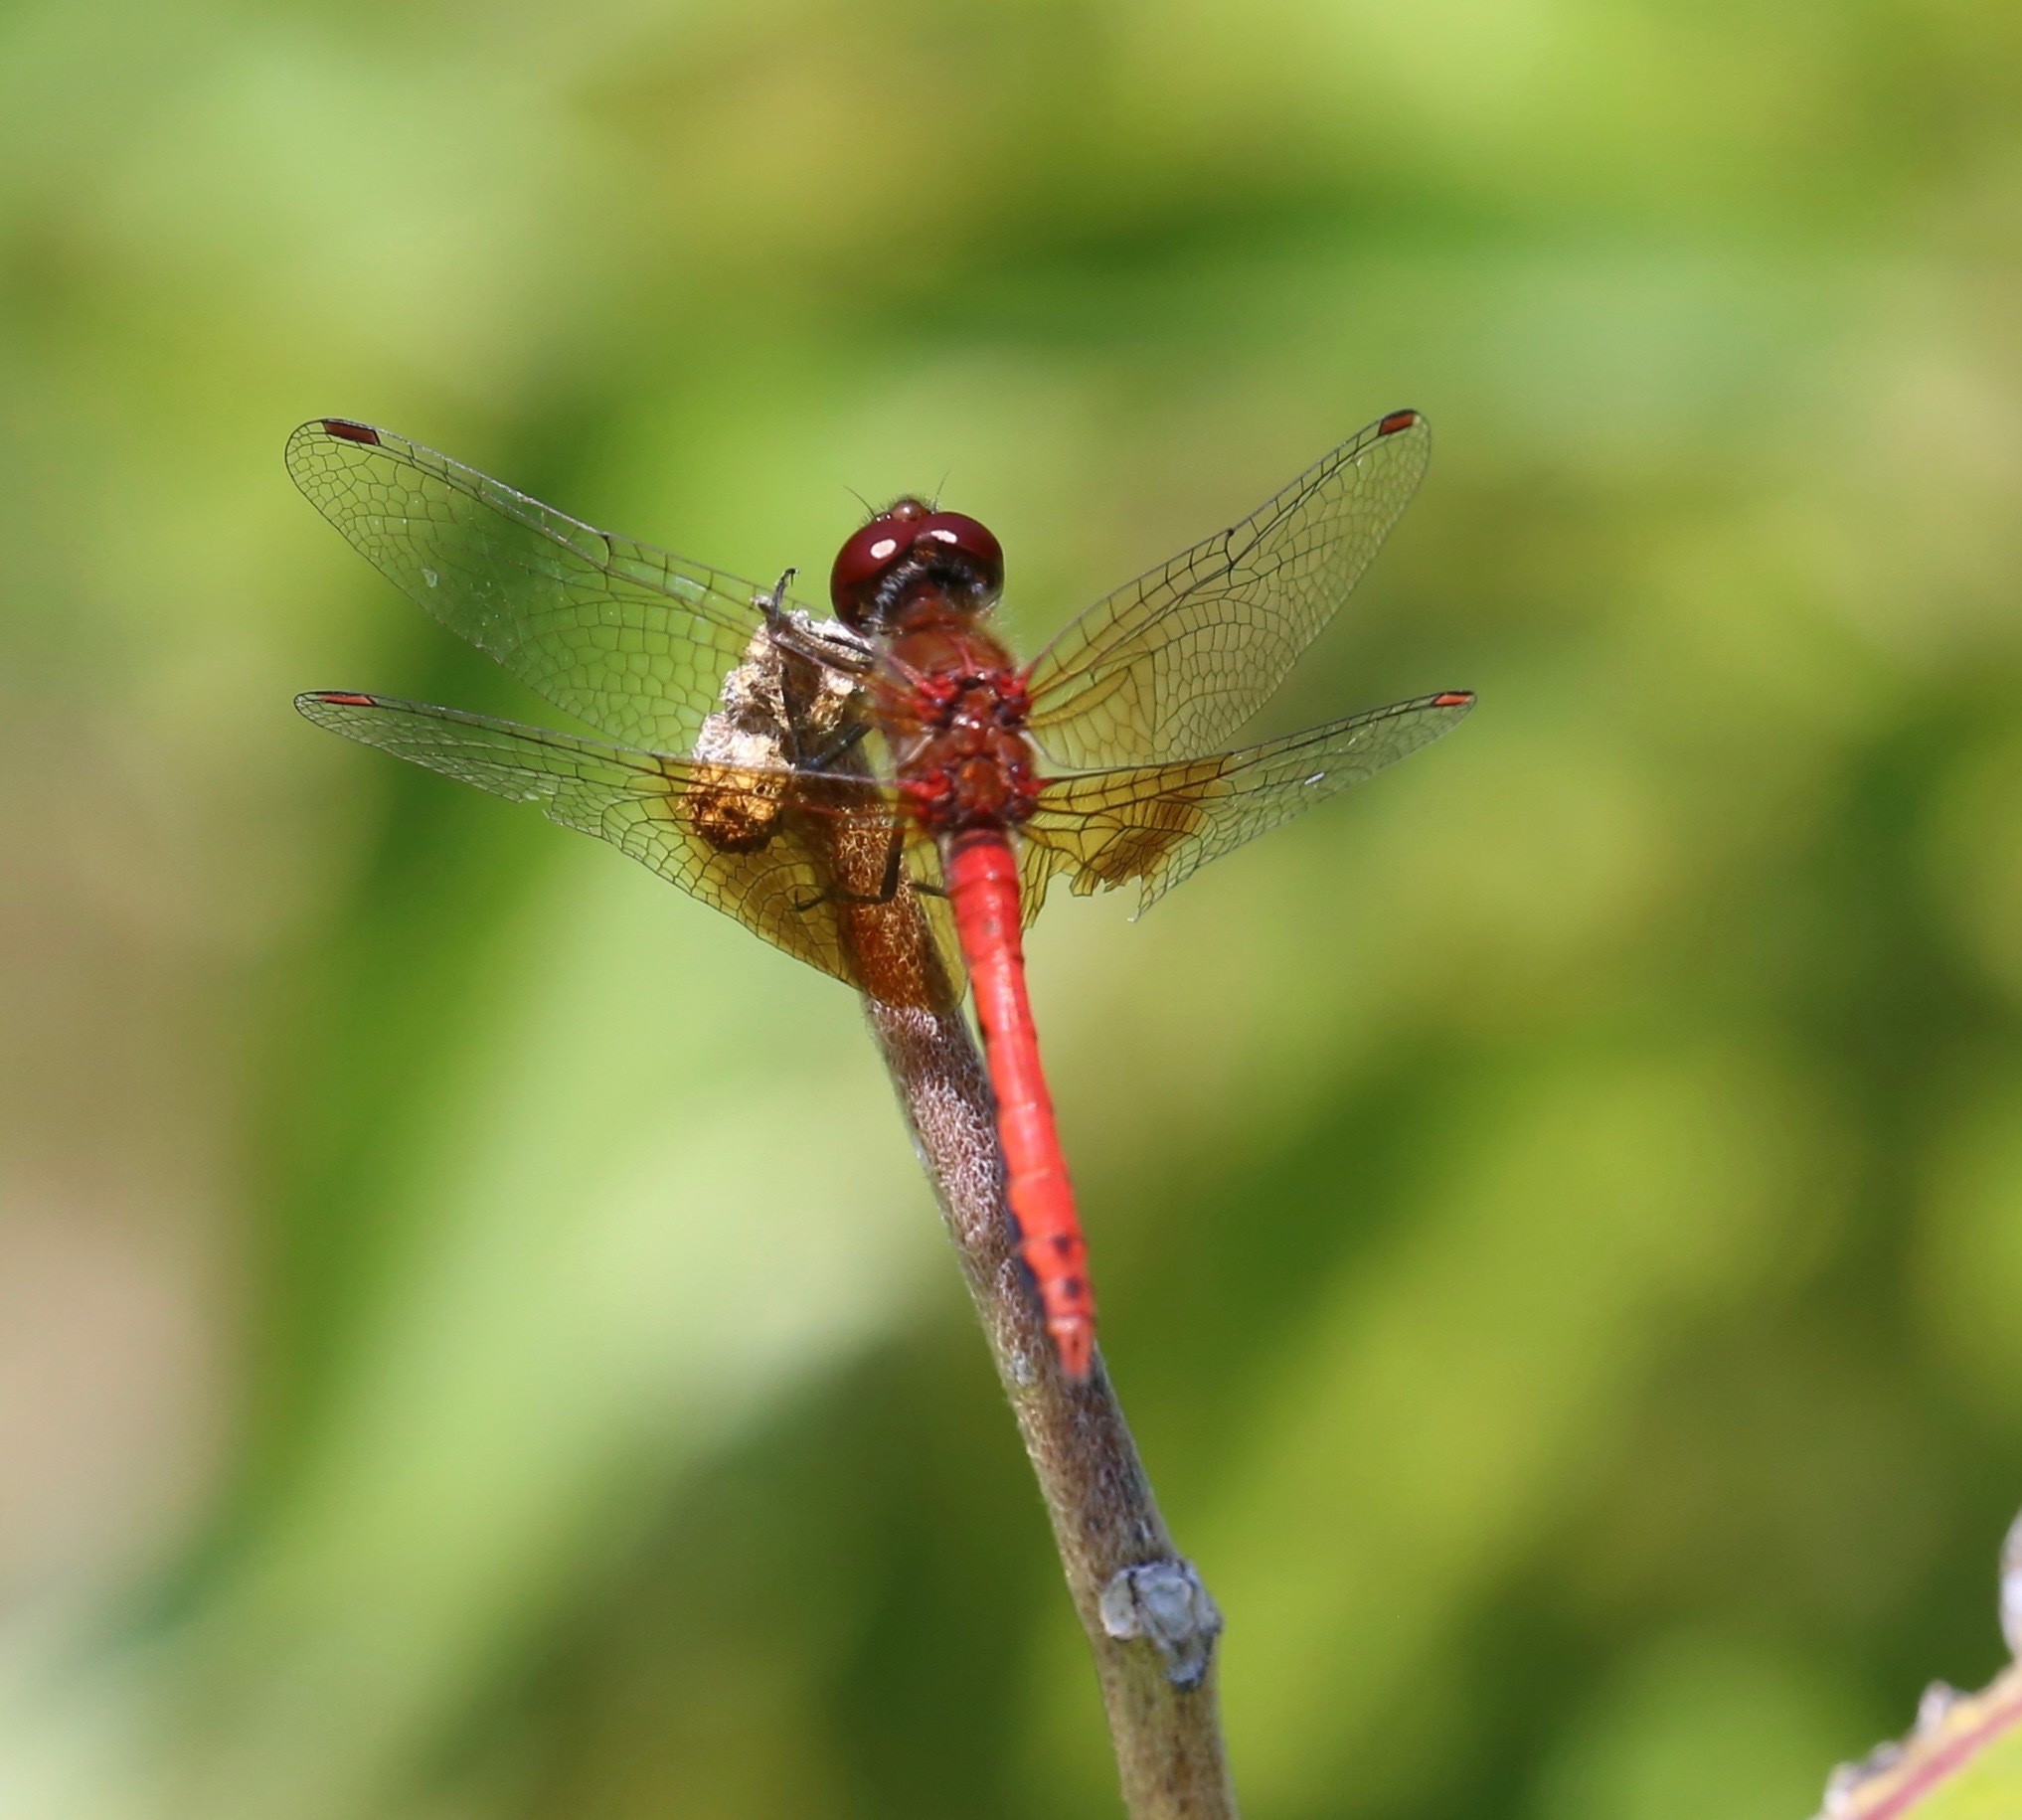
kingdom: Animalia
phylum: Arthropoda
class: Insecta
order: Odonata
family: Libellulidae
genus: Sympetrum
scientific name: Sympetrum semicinctum
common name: Band-winged meadowhawk
